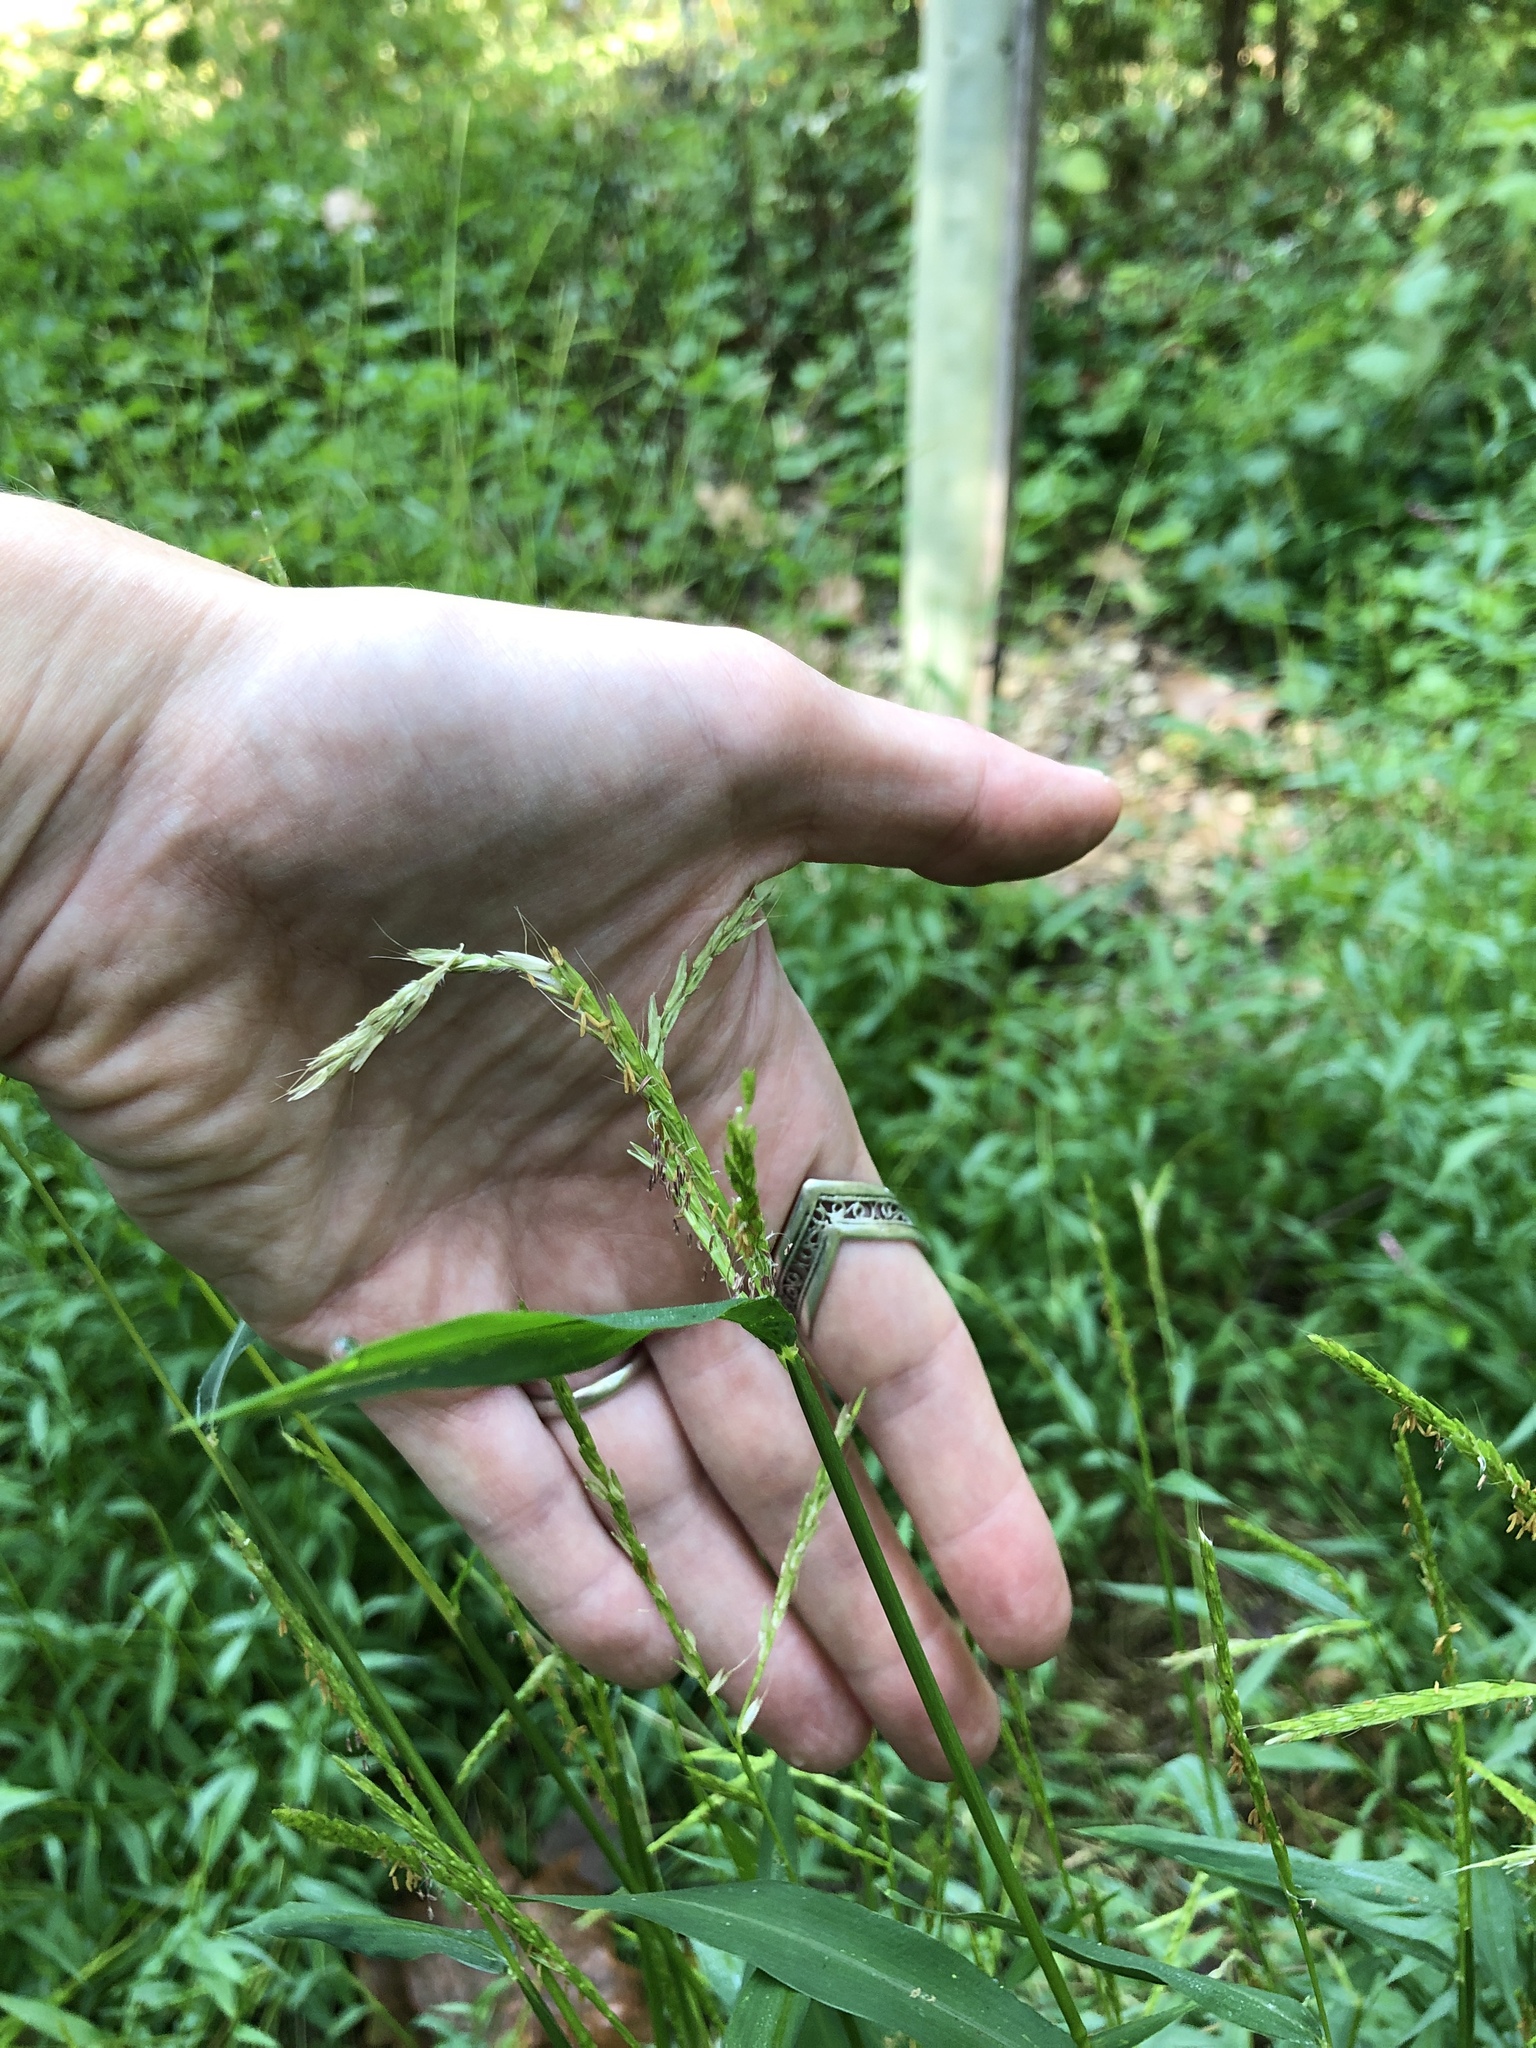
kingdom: Plantae
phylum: Tracheophyta
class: Liliopsida
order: Poales
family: Poaceae
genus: Microstegium
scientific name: Microstegium vimineum
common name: Japanese stiltgrass
